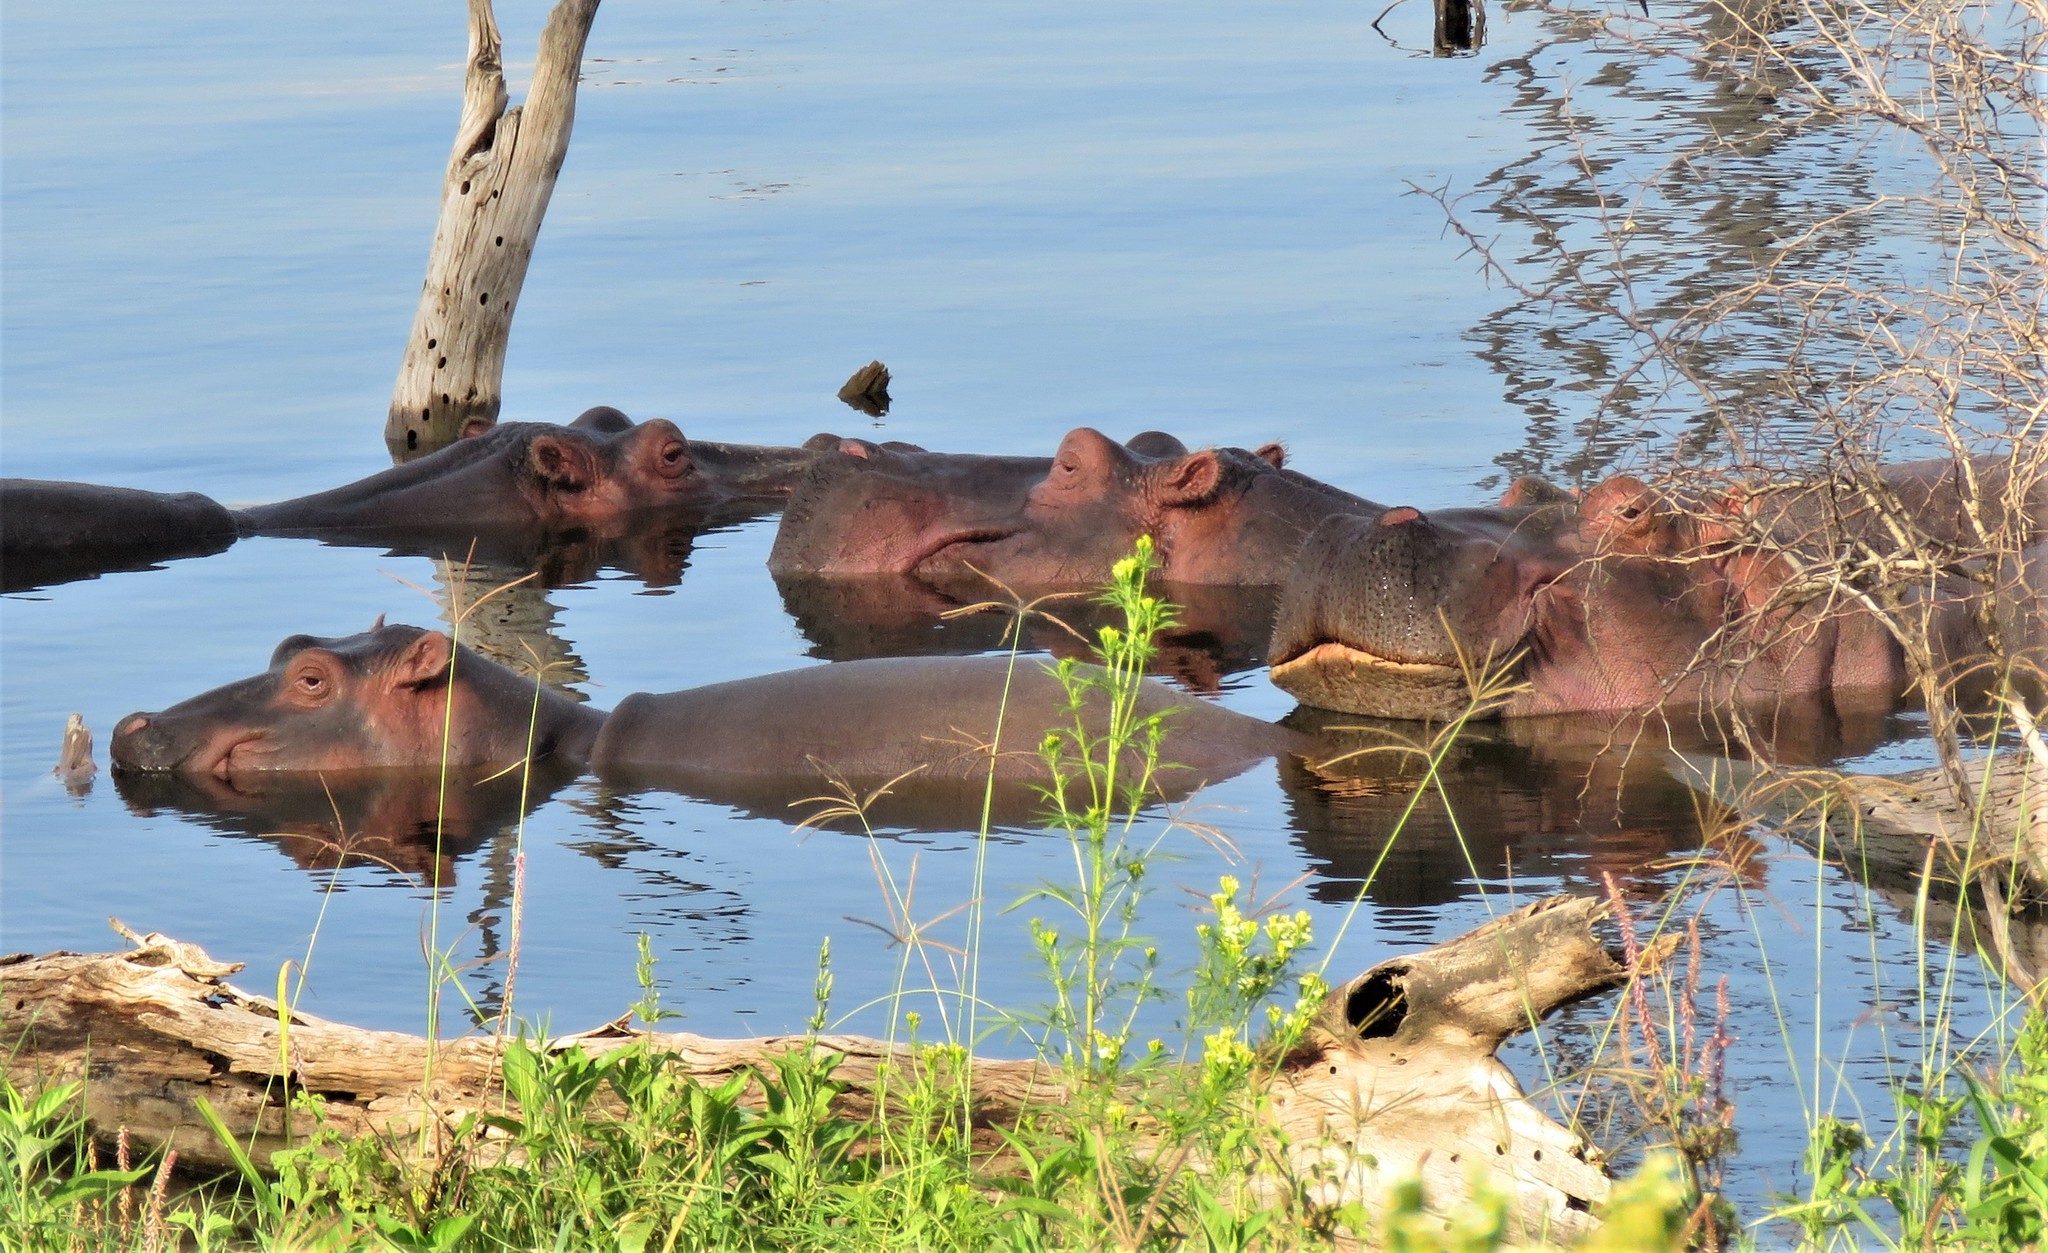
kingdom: Animalia
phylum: Chordata
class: Mammalia
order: Artiodactyla
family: Hippopotamidae
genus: Hippopotamus
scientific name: Hippopotamus amphibius
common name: Common hippopotamus
